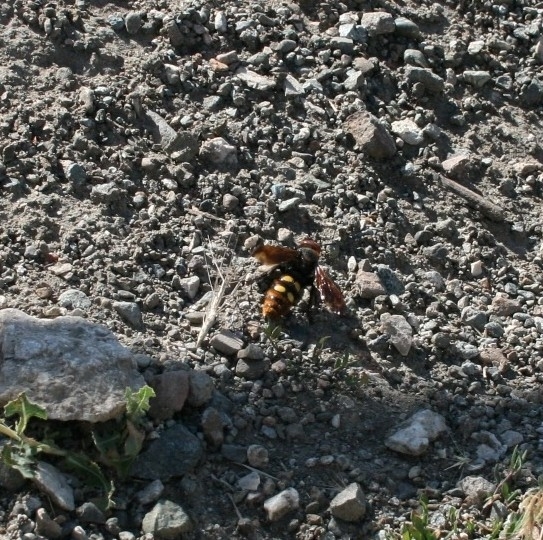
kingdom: Animalia
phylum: Arthropoda
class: Insecta
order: Hymenoptera
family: Scoliidae
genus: Megascolia
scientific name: Megascolia maculata
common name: Mammoth wasp
